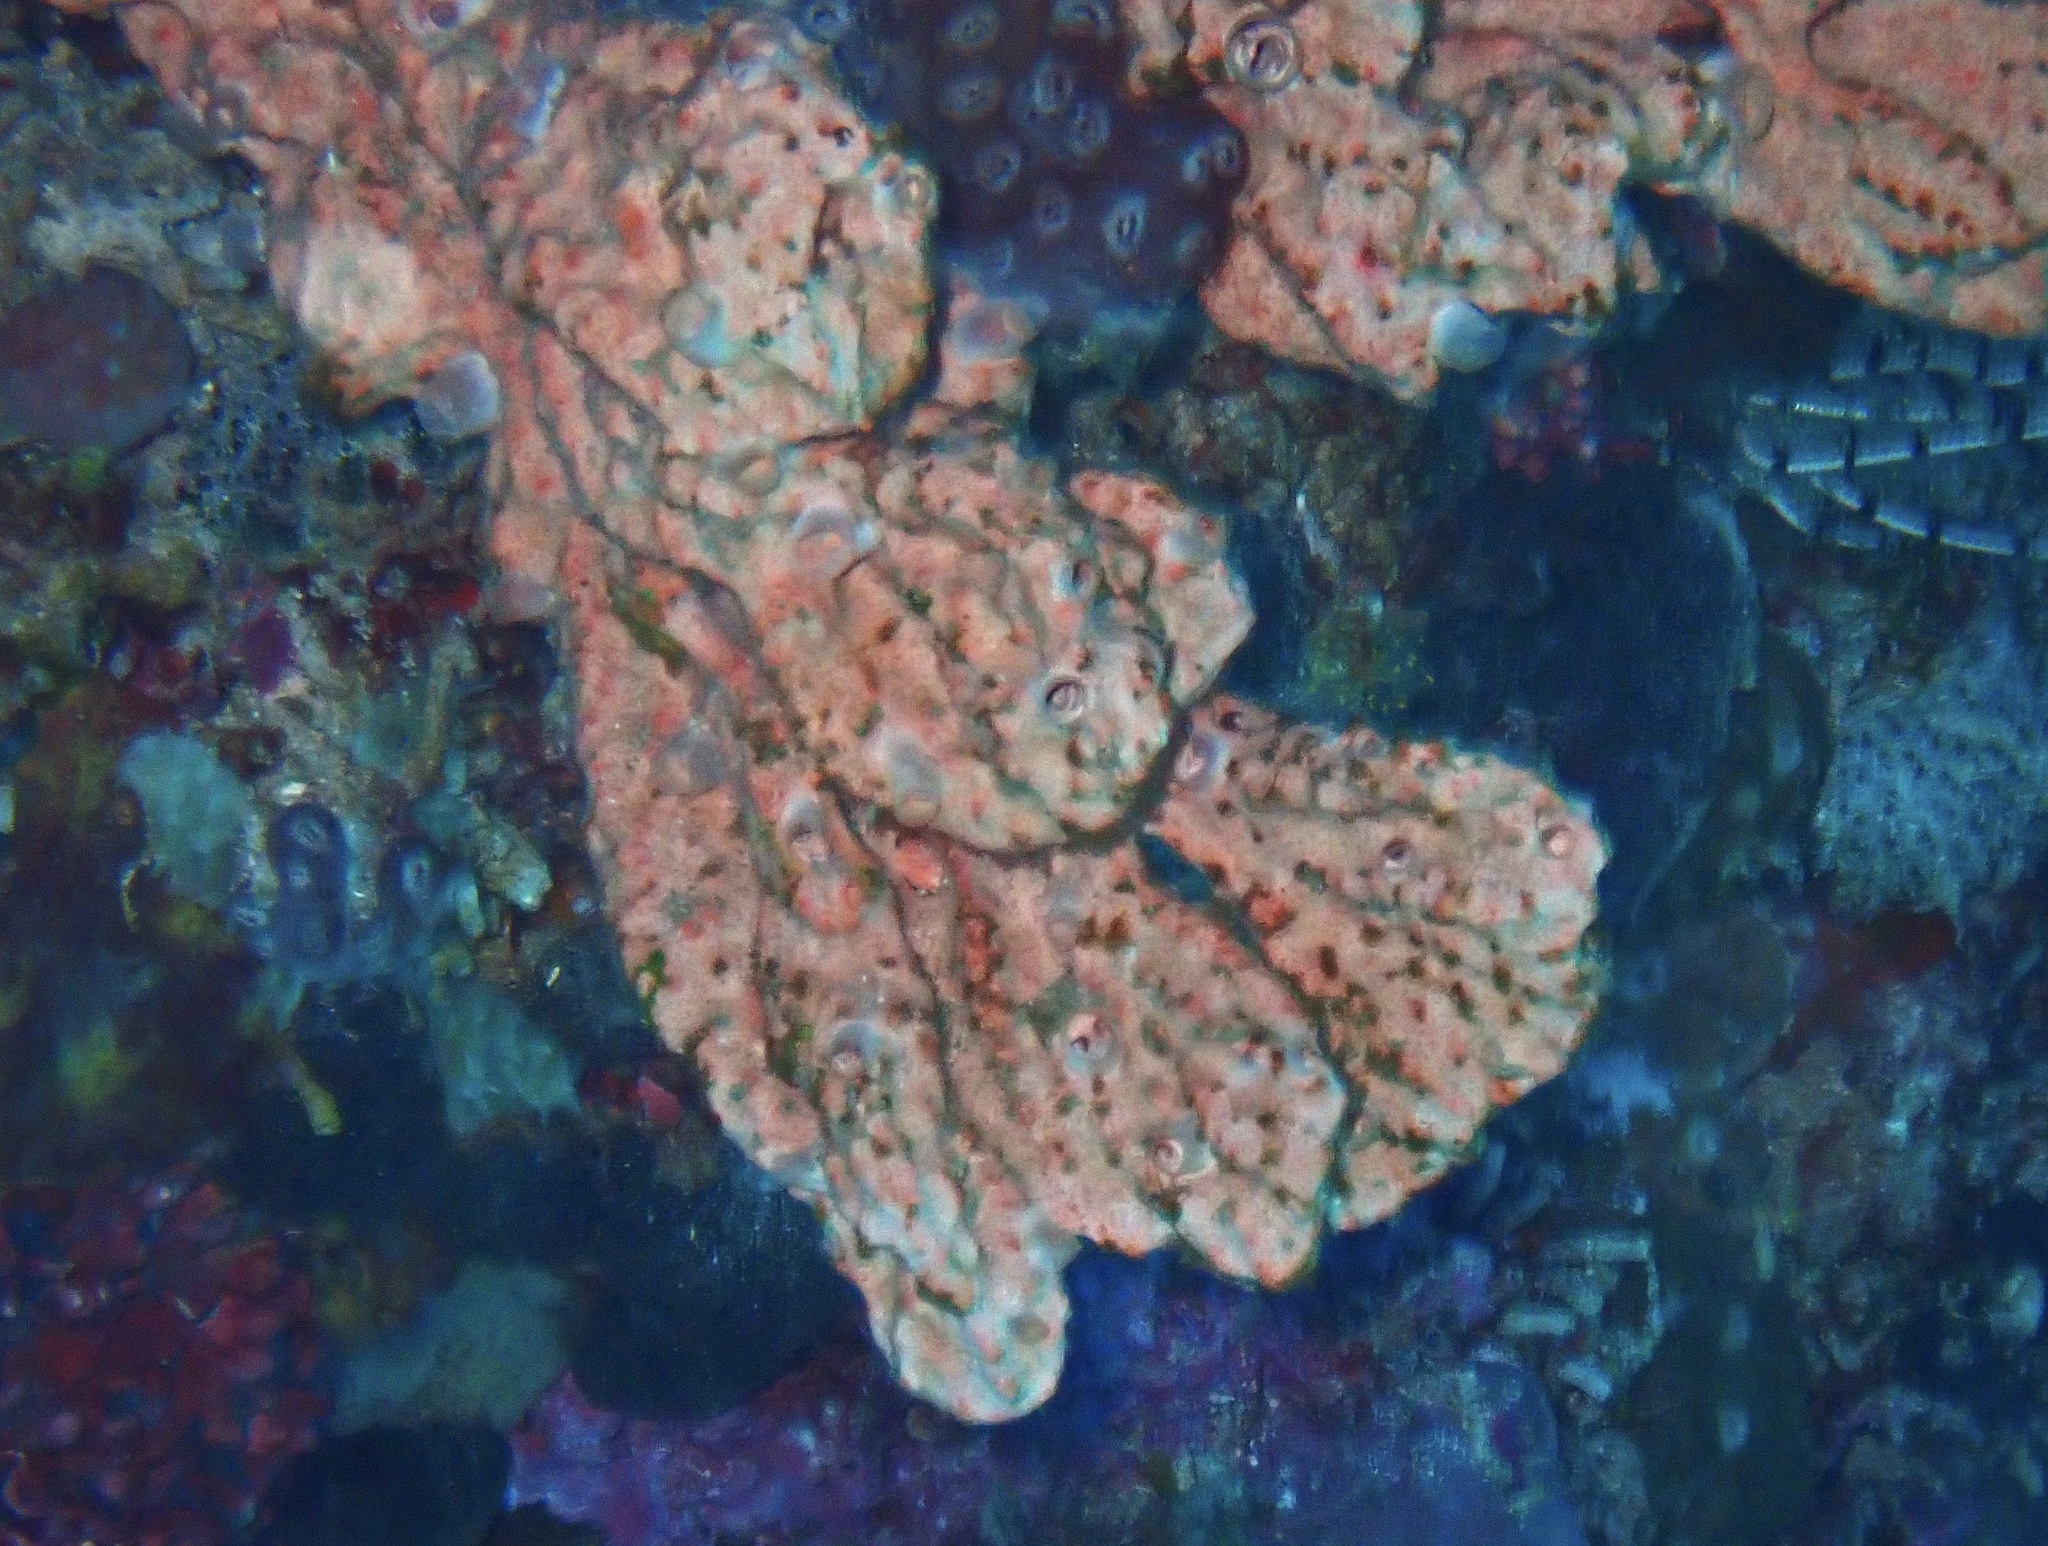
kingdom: Animalia
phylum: Porifera
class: Demospongiae
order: Scopalinida
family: Scopalinidae
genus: Stylissa
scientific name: Stylissa carteri
